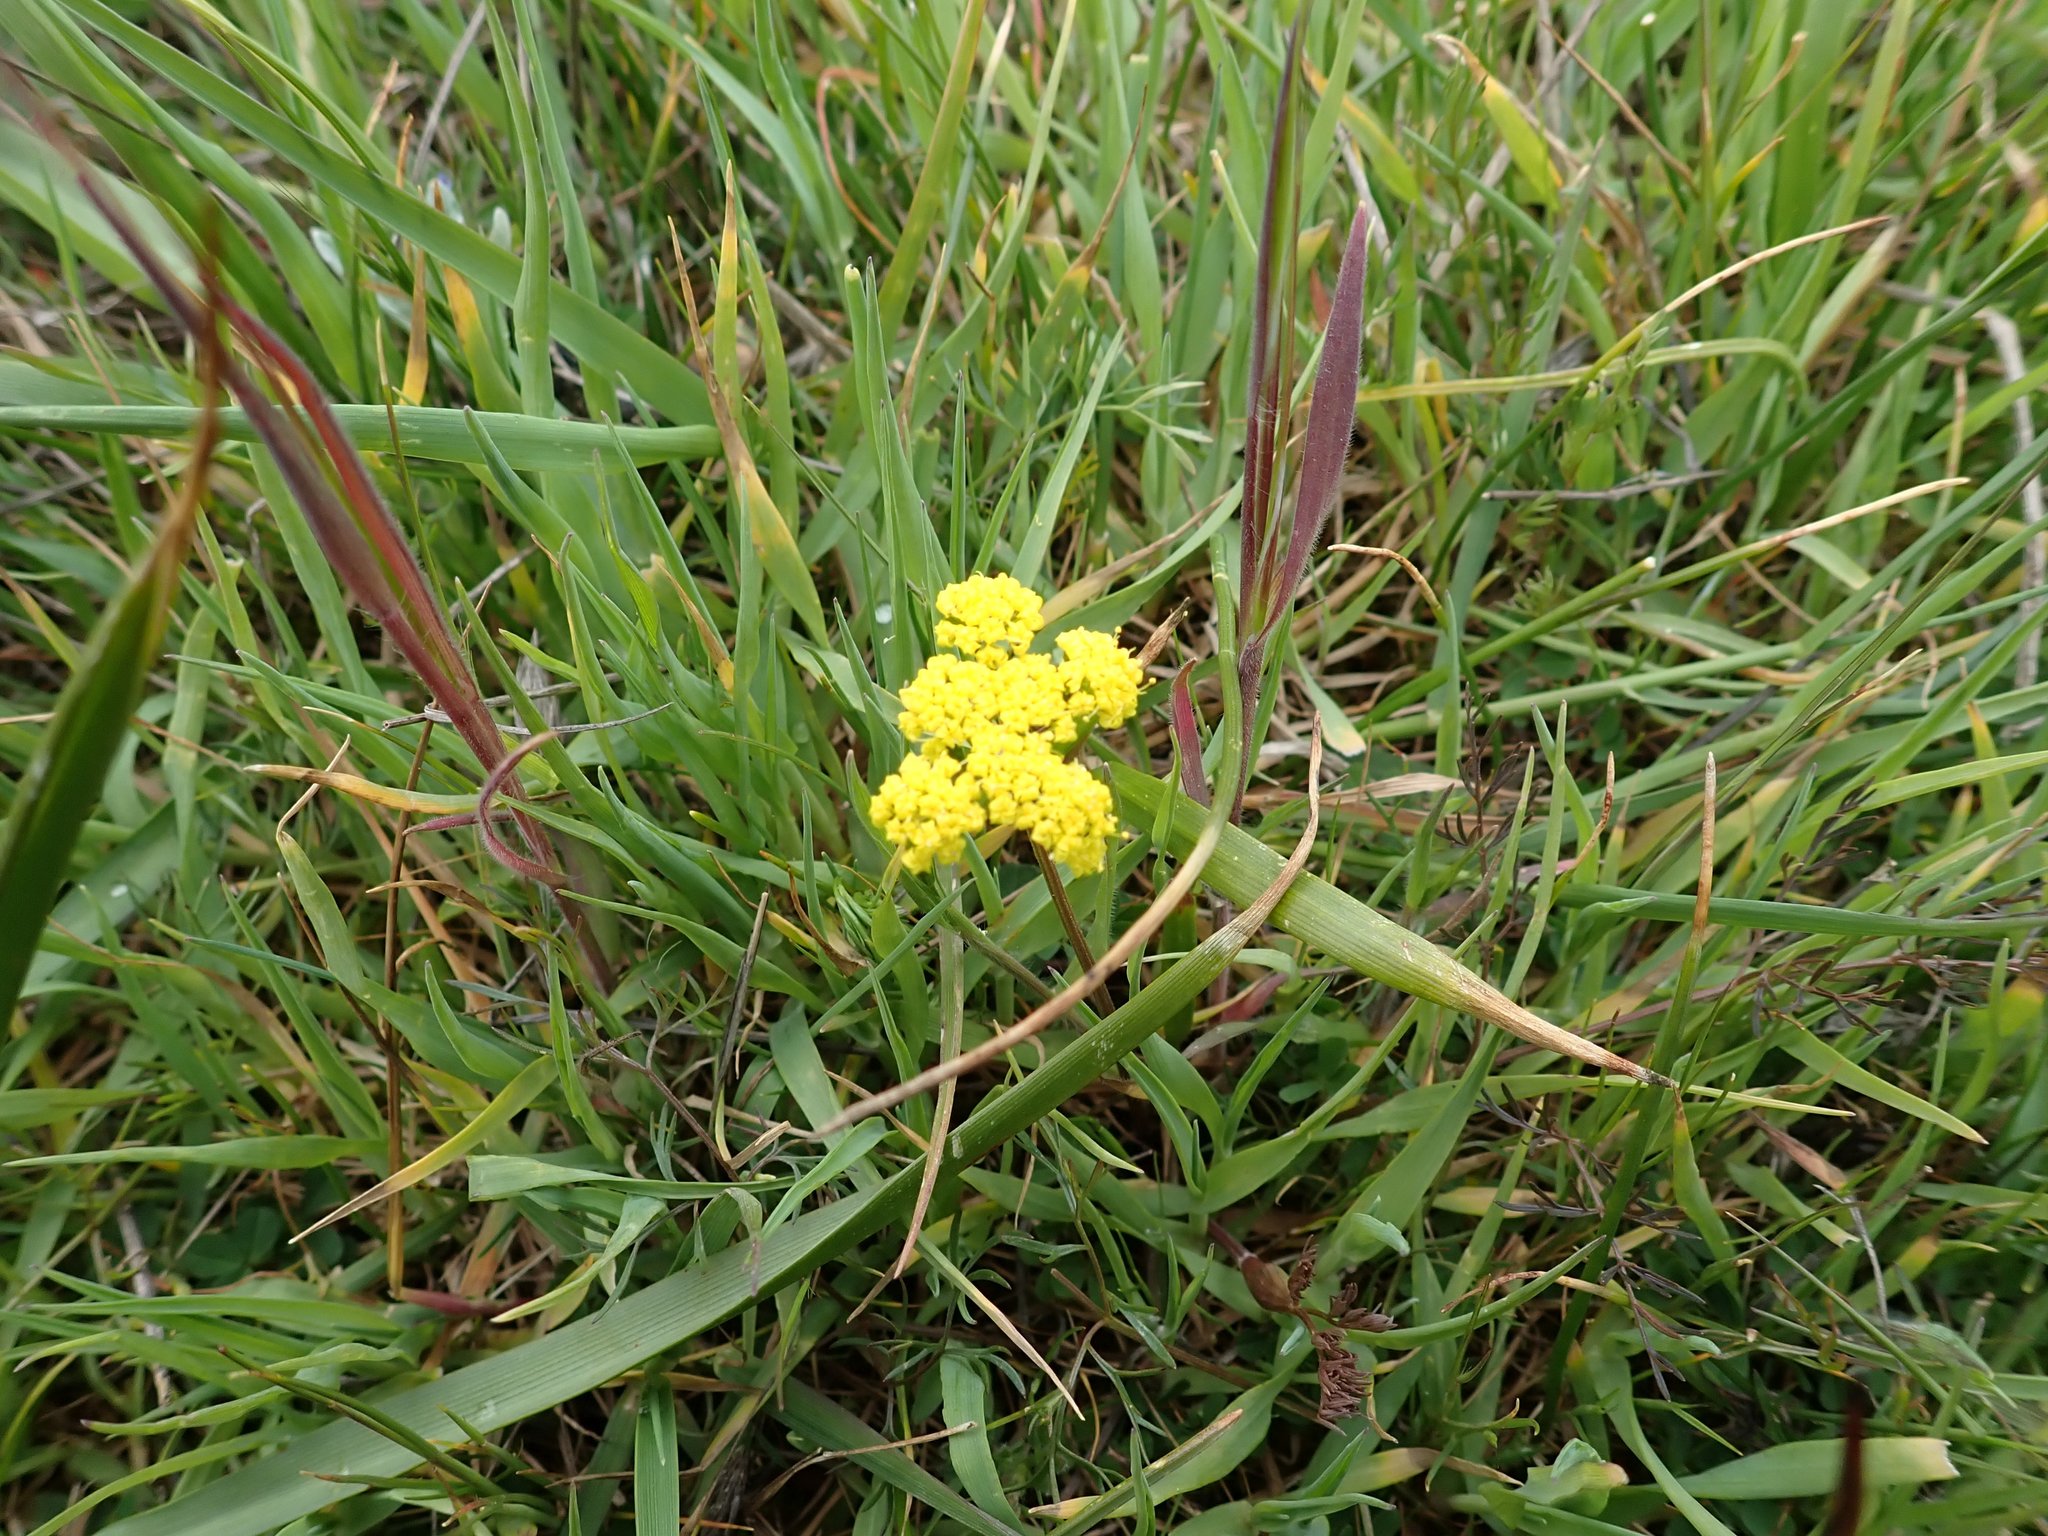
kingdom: Plantae
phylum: Tracheophyta
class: Magnoliopsida
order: Apiales
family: Apiaceae
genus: Lomatium
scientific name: Lomatium utriculatum
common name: Fine-leaf desert-parsley
